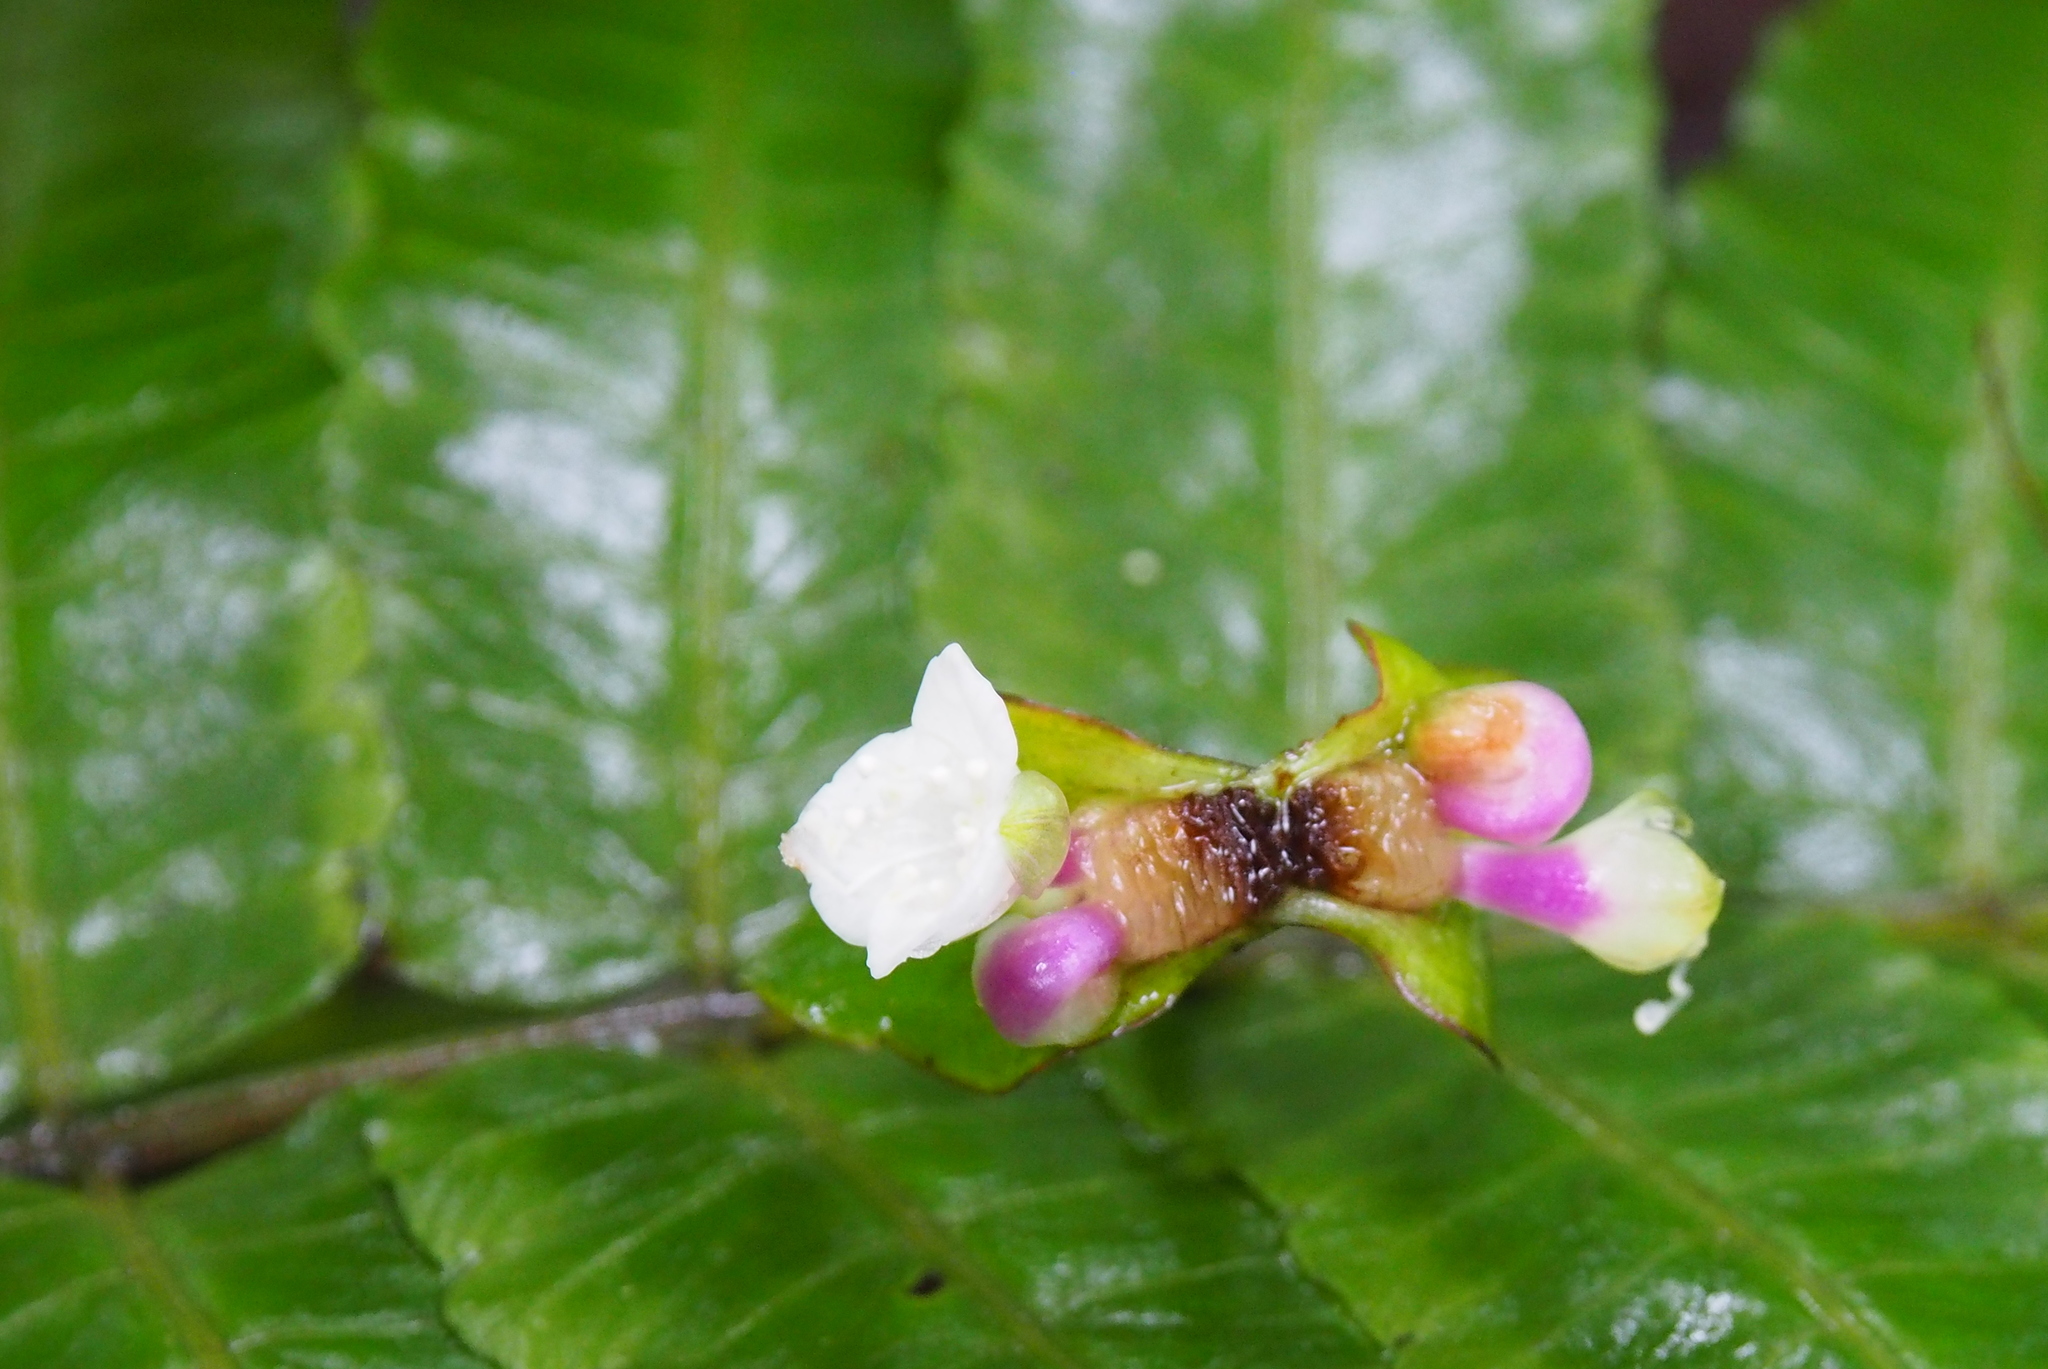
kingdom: Plantae
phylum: Tracheophyta
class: Liliopsida
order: Commelinales
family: Commelinaceae
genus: Tradescantia
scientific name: Tradescantia zanonia
